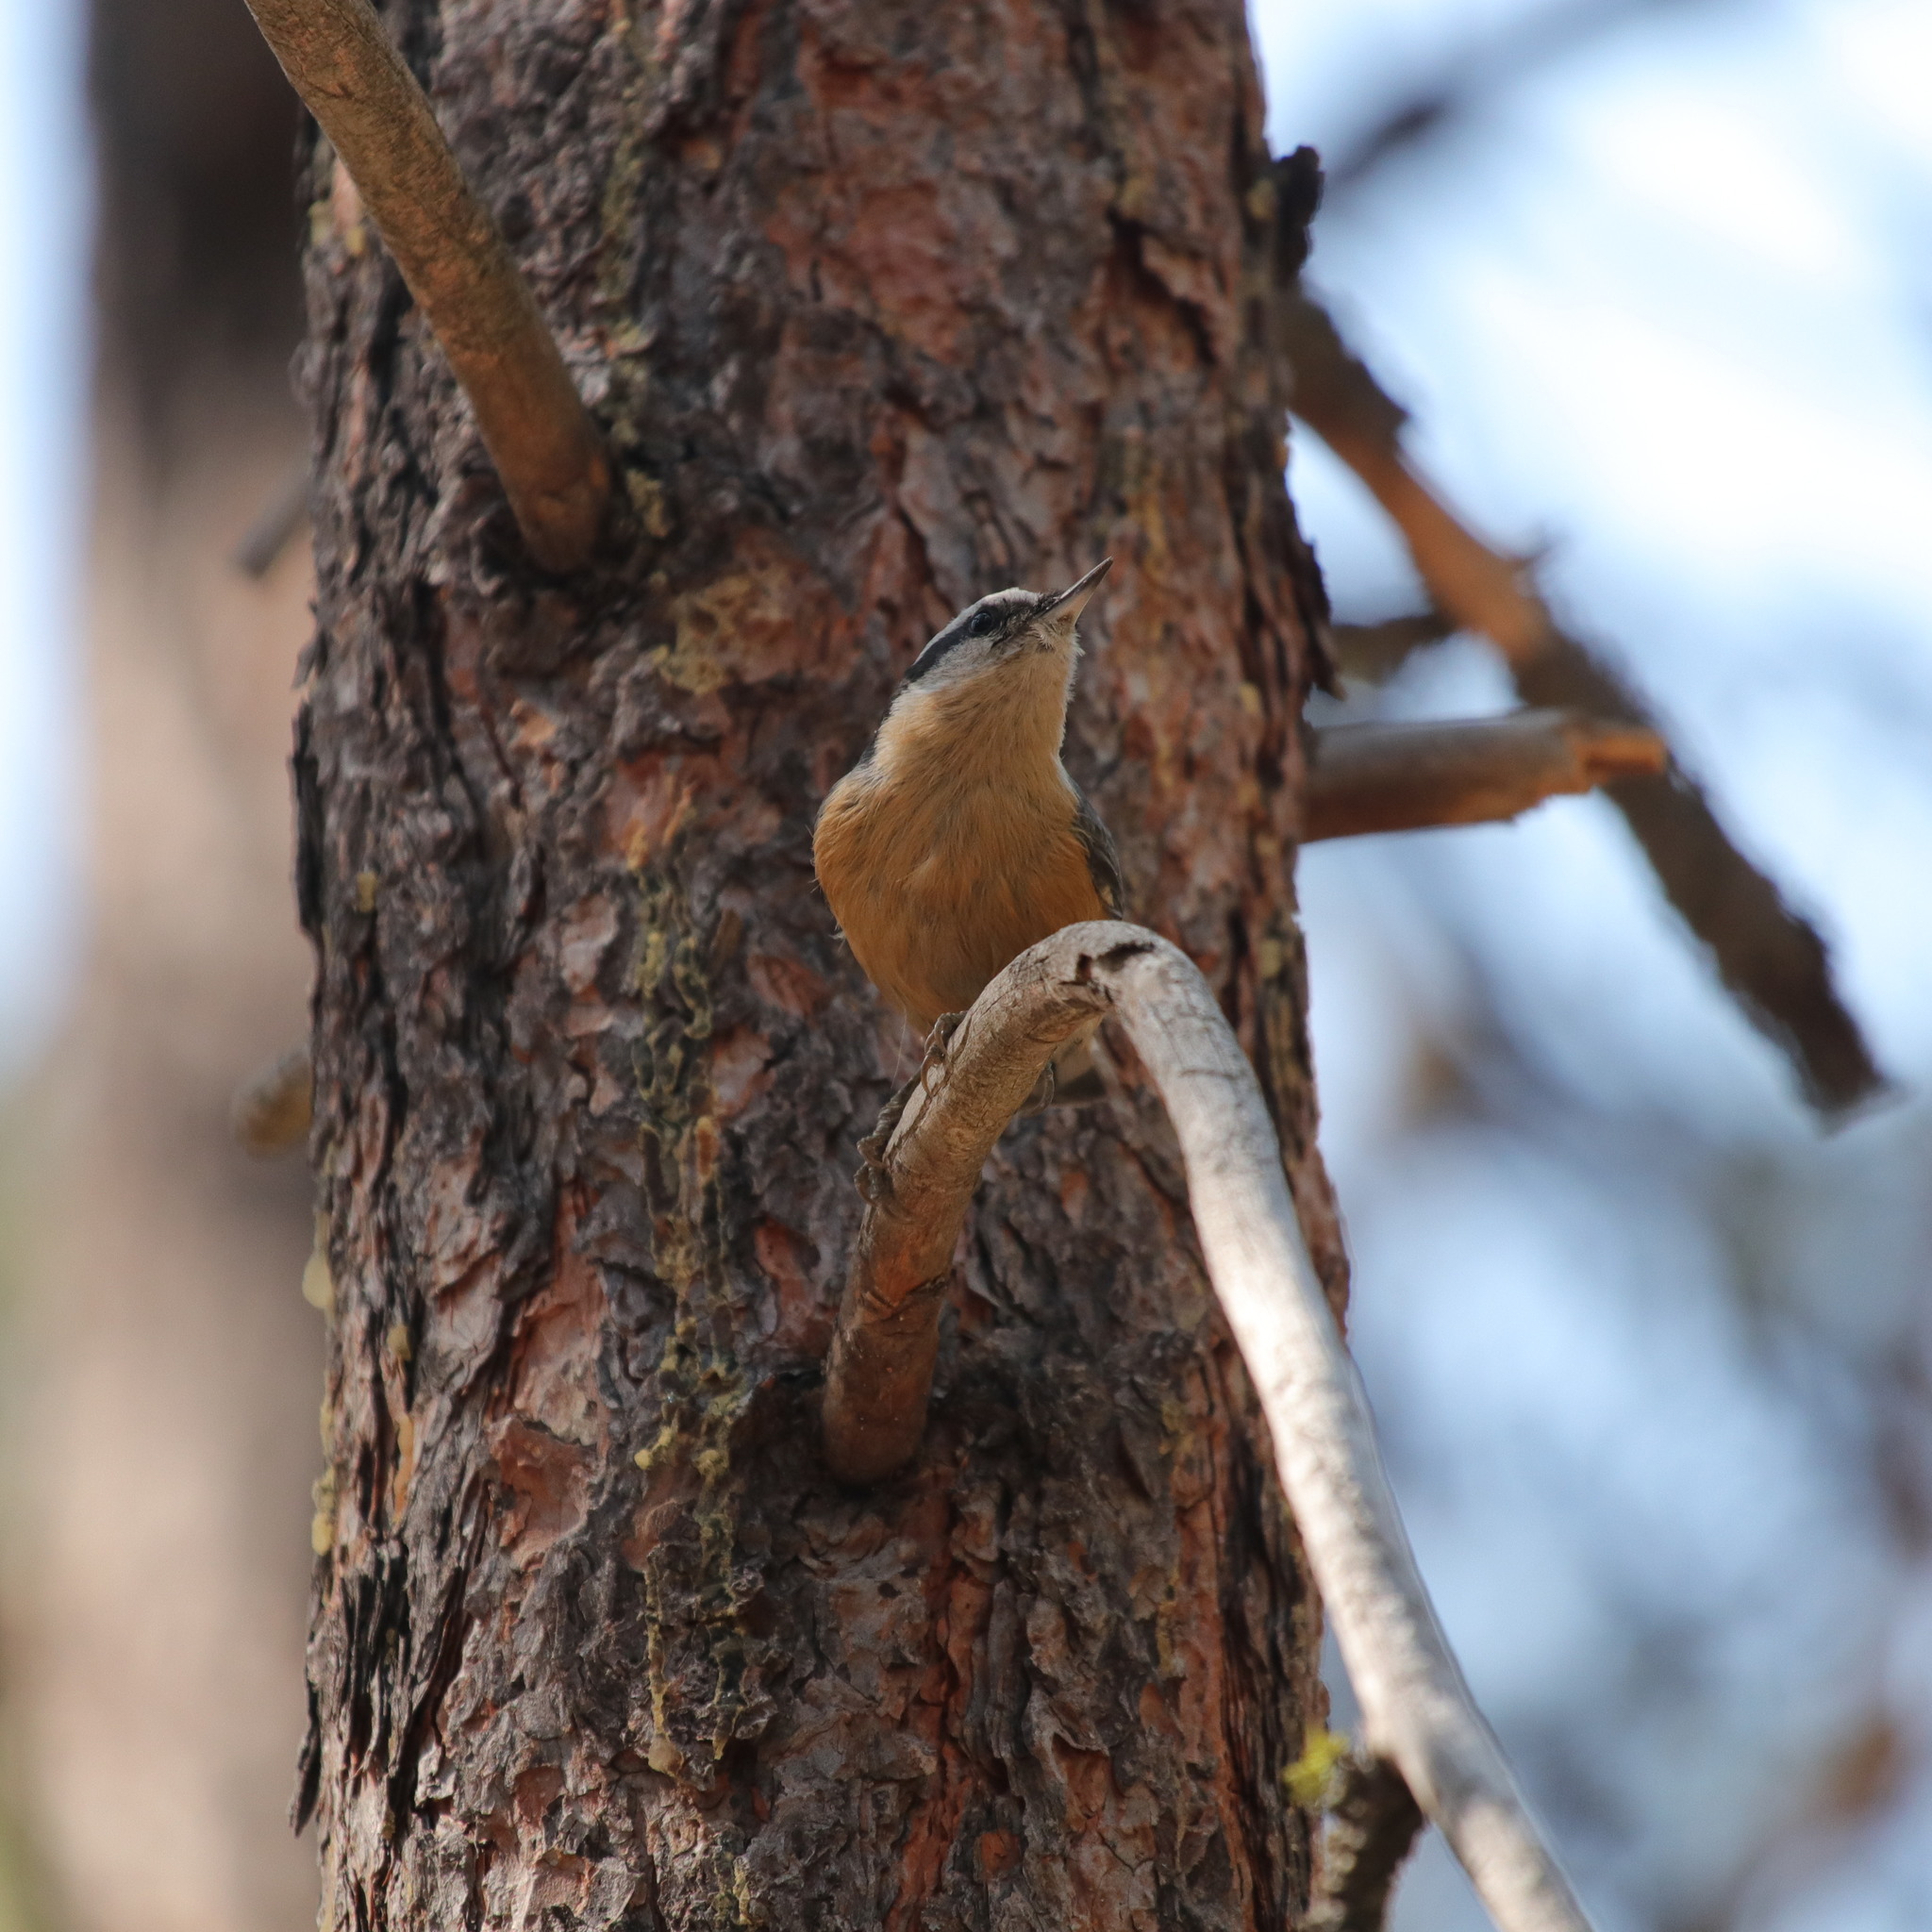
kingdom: Animalia
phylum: Chordata
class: Aves
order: Passeriformes
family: Sittidae
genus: Sitta
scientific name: Sitta canadensis
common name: Red-breasted nuthatch
